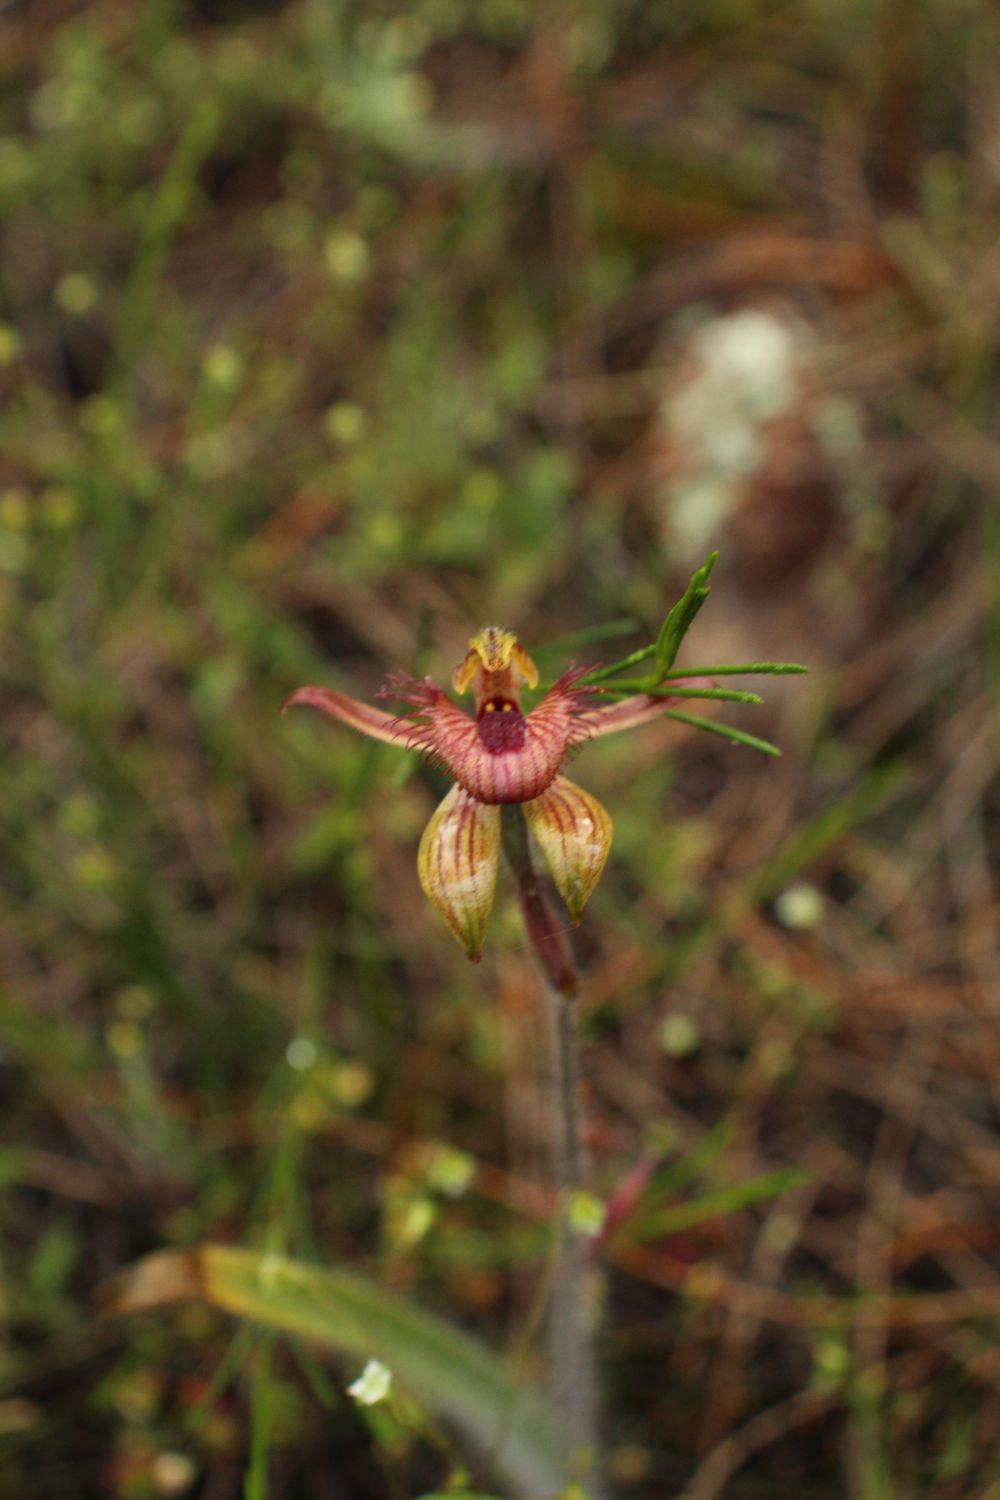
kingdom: Plantae
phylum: Tracheophyta
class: Liliopsida
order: Asparagales
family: Orchidaceae
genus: Caladenia
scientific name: Caladenia discoidea
